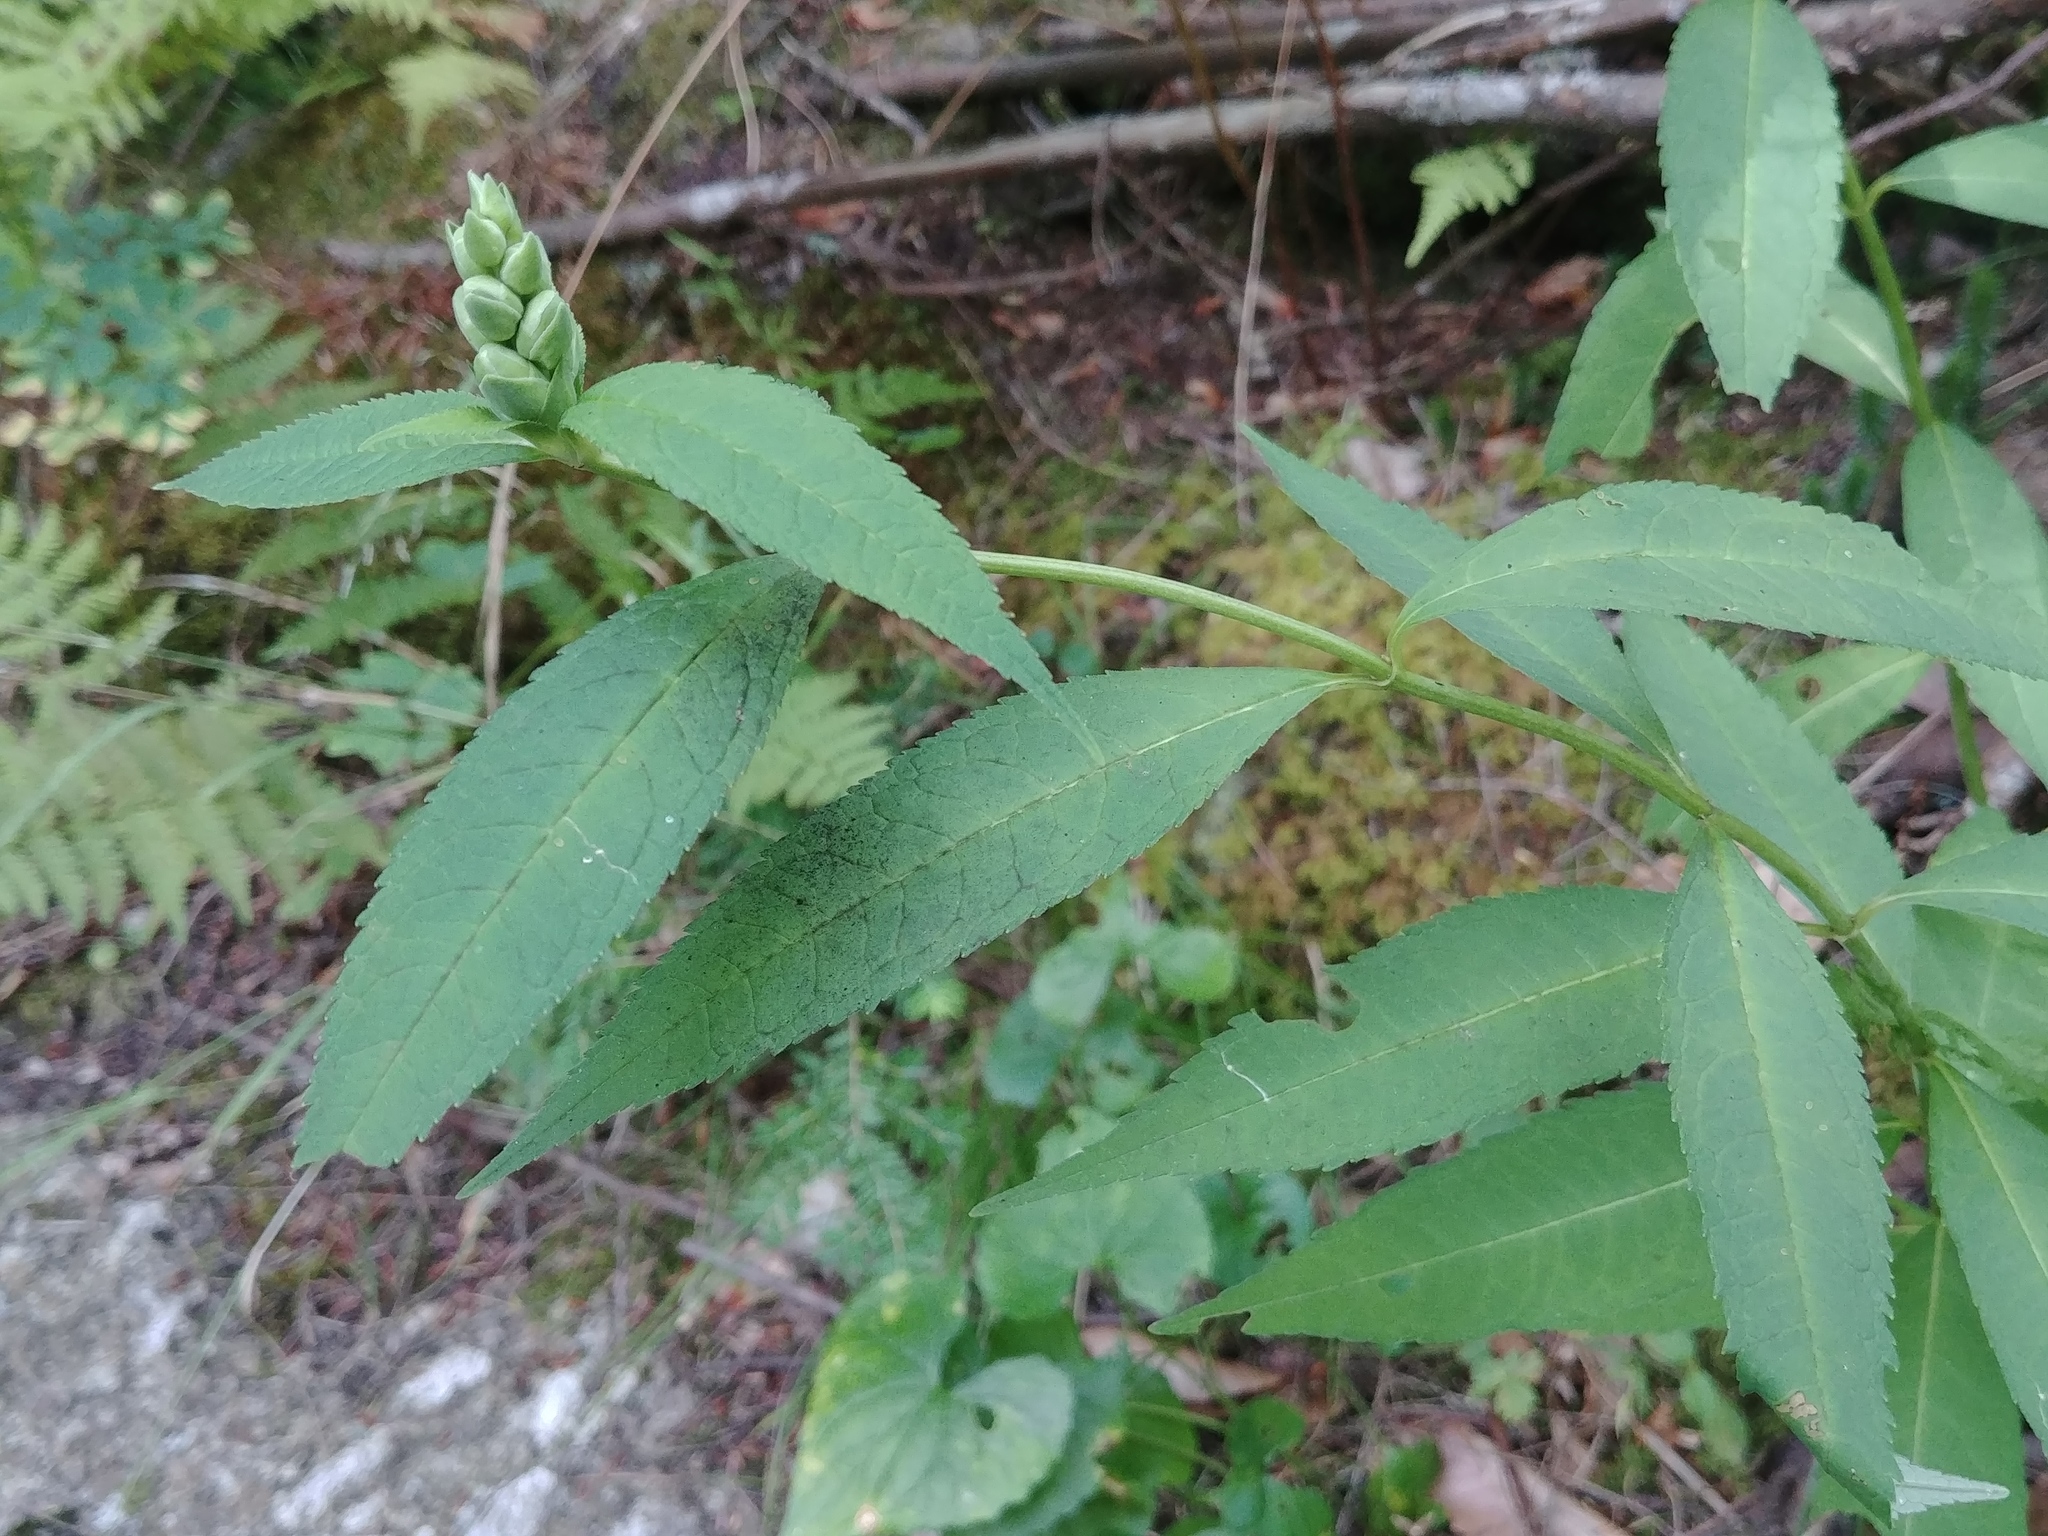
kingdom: Plantae
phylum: Tracheophyta
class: Magnoliopsida
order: Lamiales
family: Plantaginaceae
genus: Chelone
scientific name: Chelone glabra
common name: Snakehead
